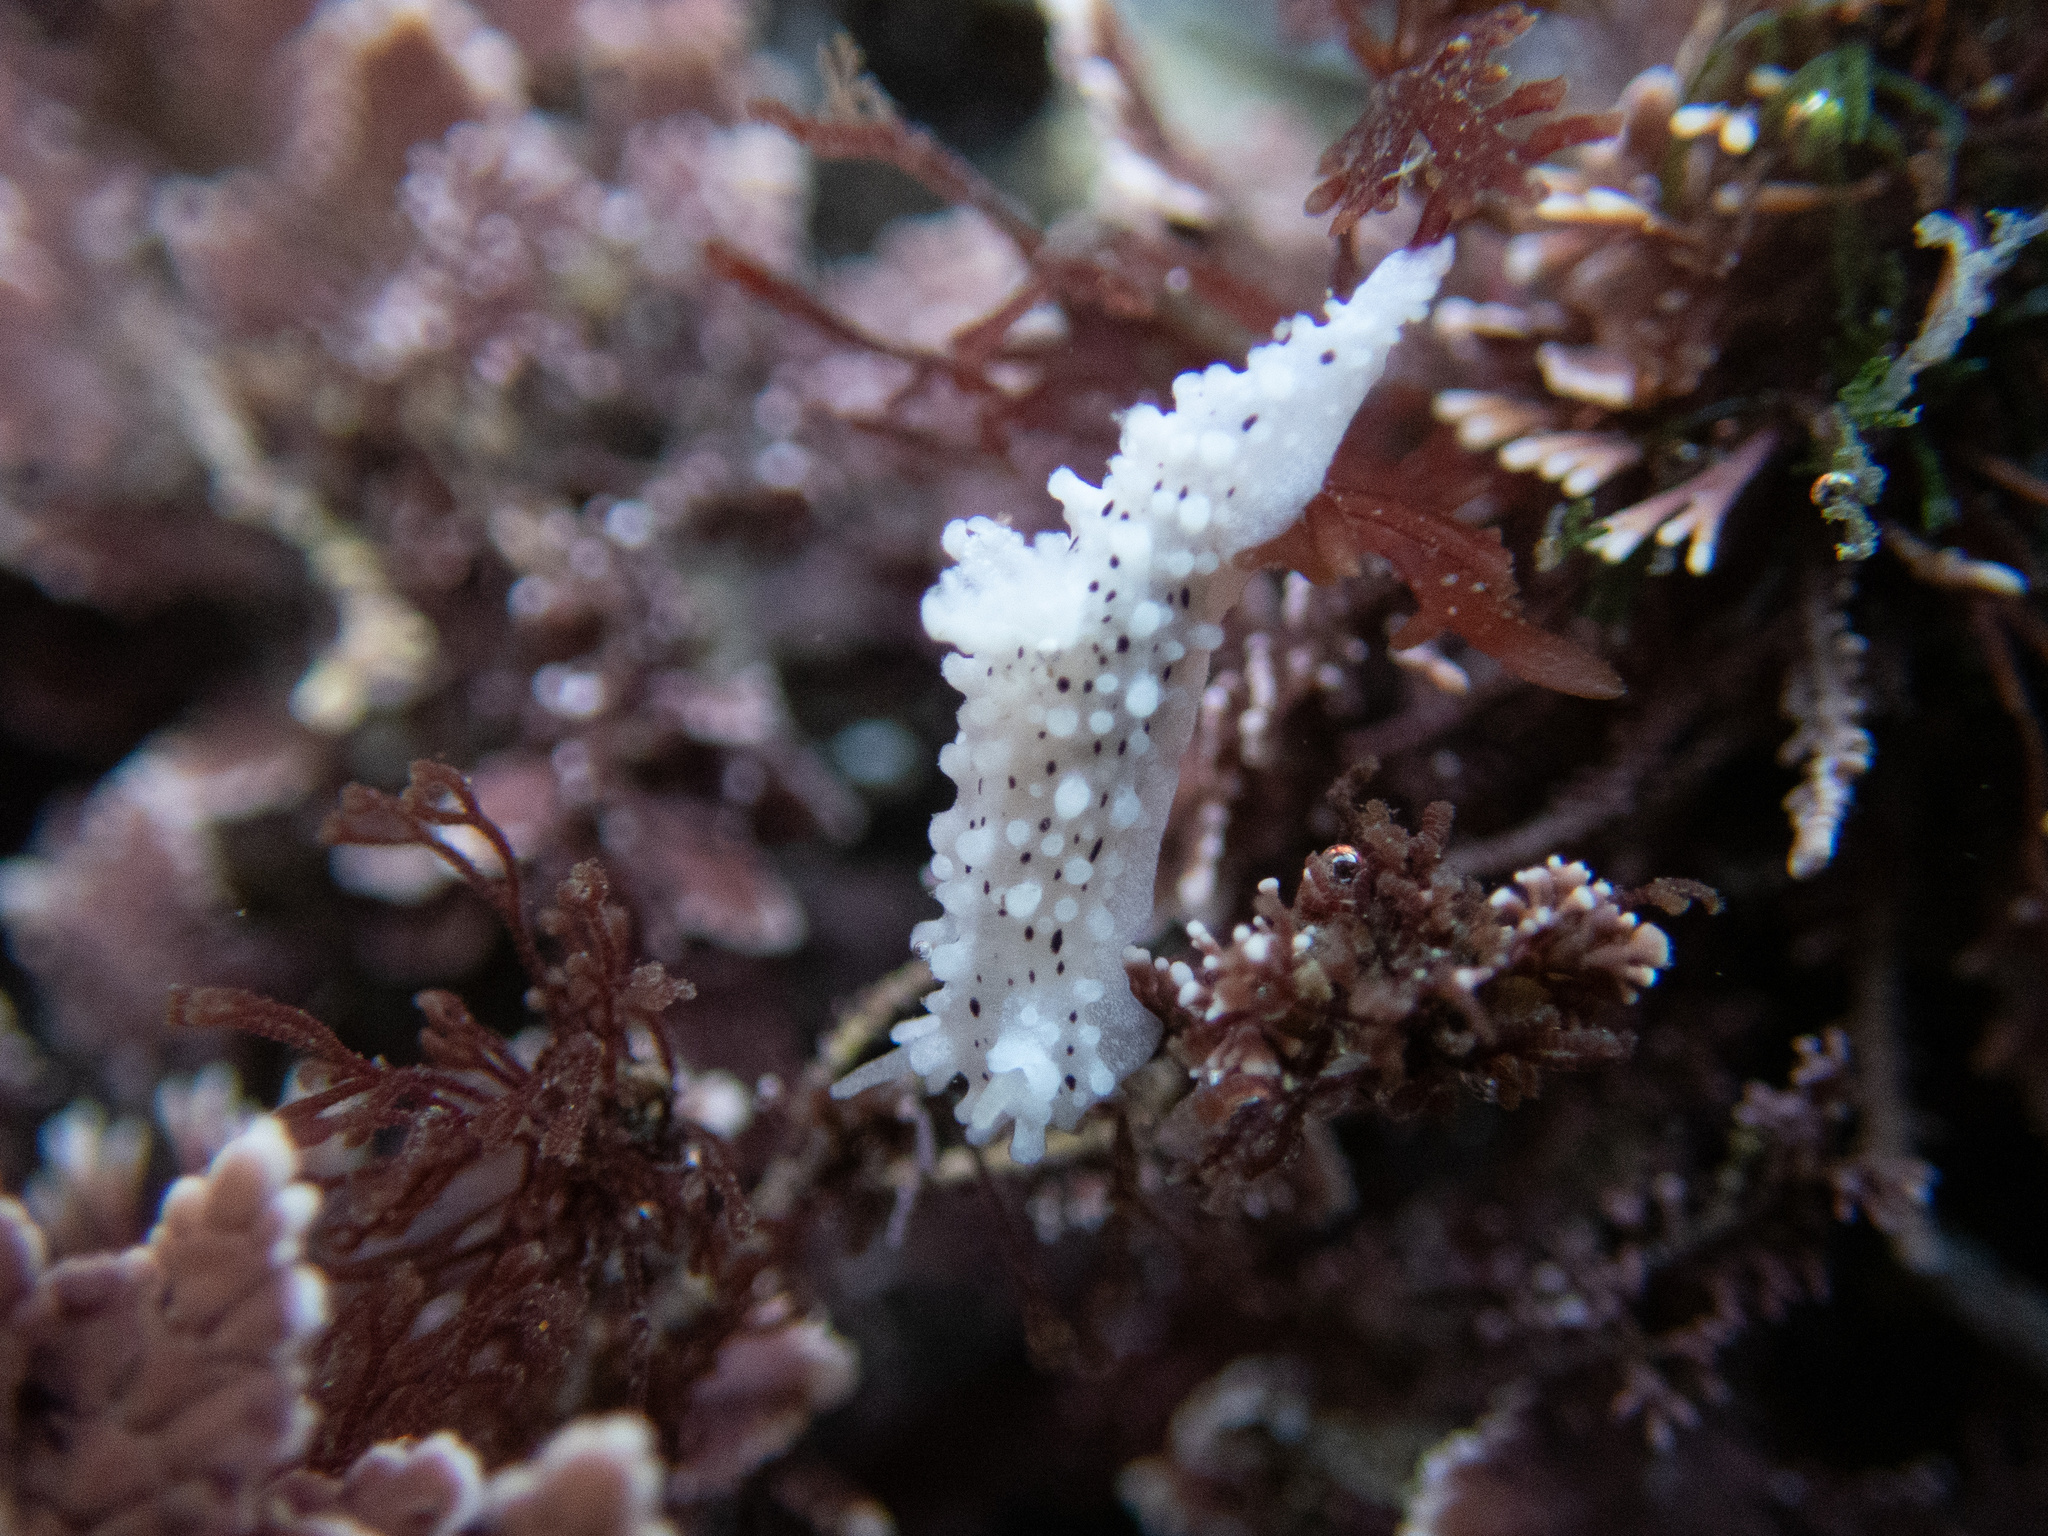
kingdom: Animalia
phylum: Mollusca
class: Gastropoda
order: Nudibranchia
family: Aegiridae
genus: Aegires
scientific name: Aegires albopunctatus
